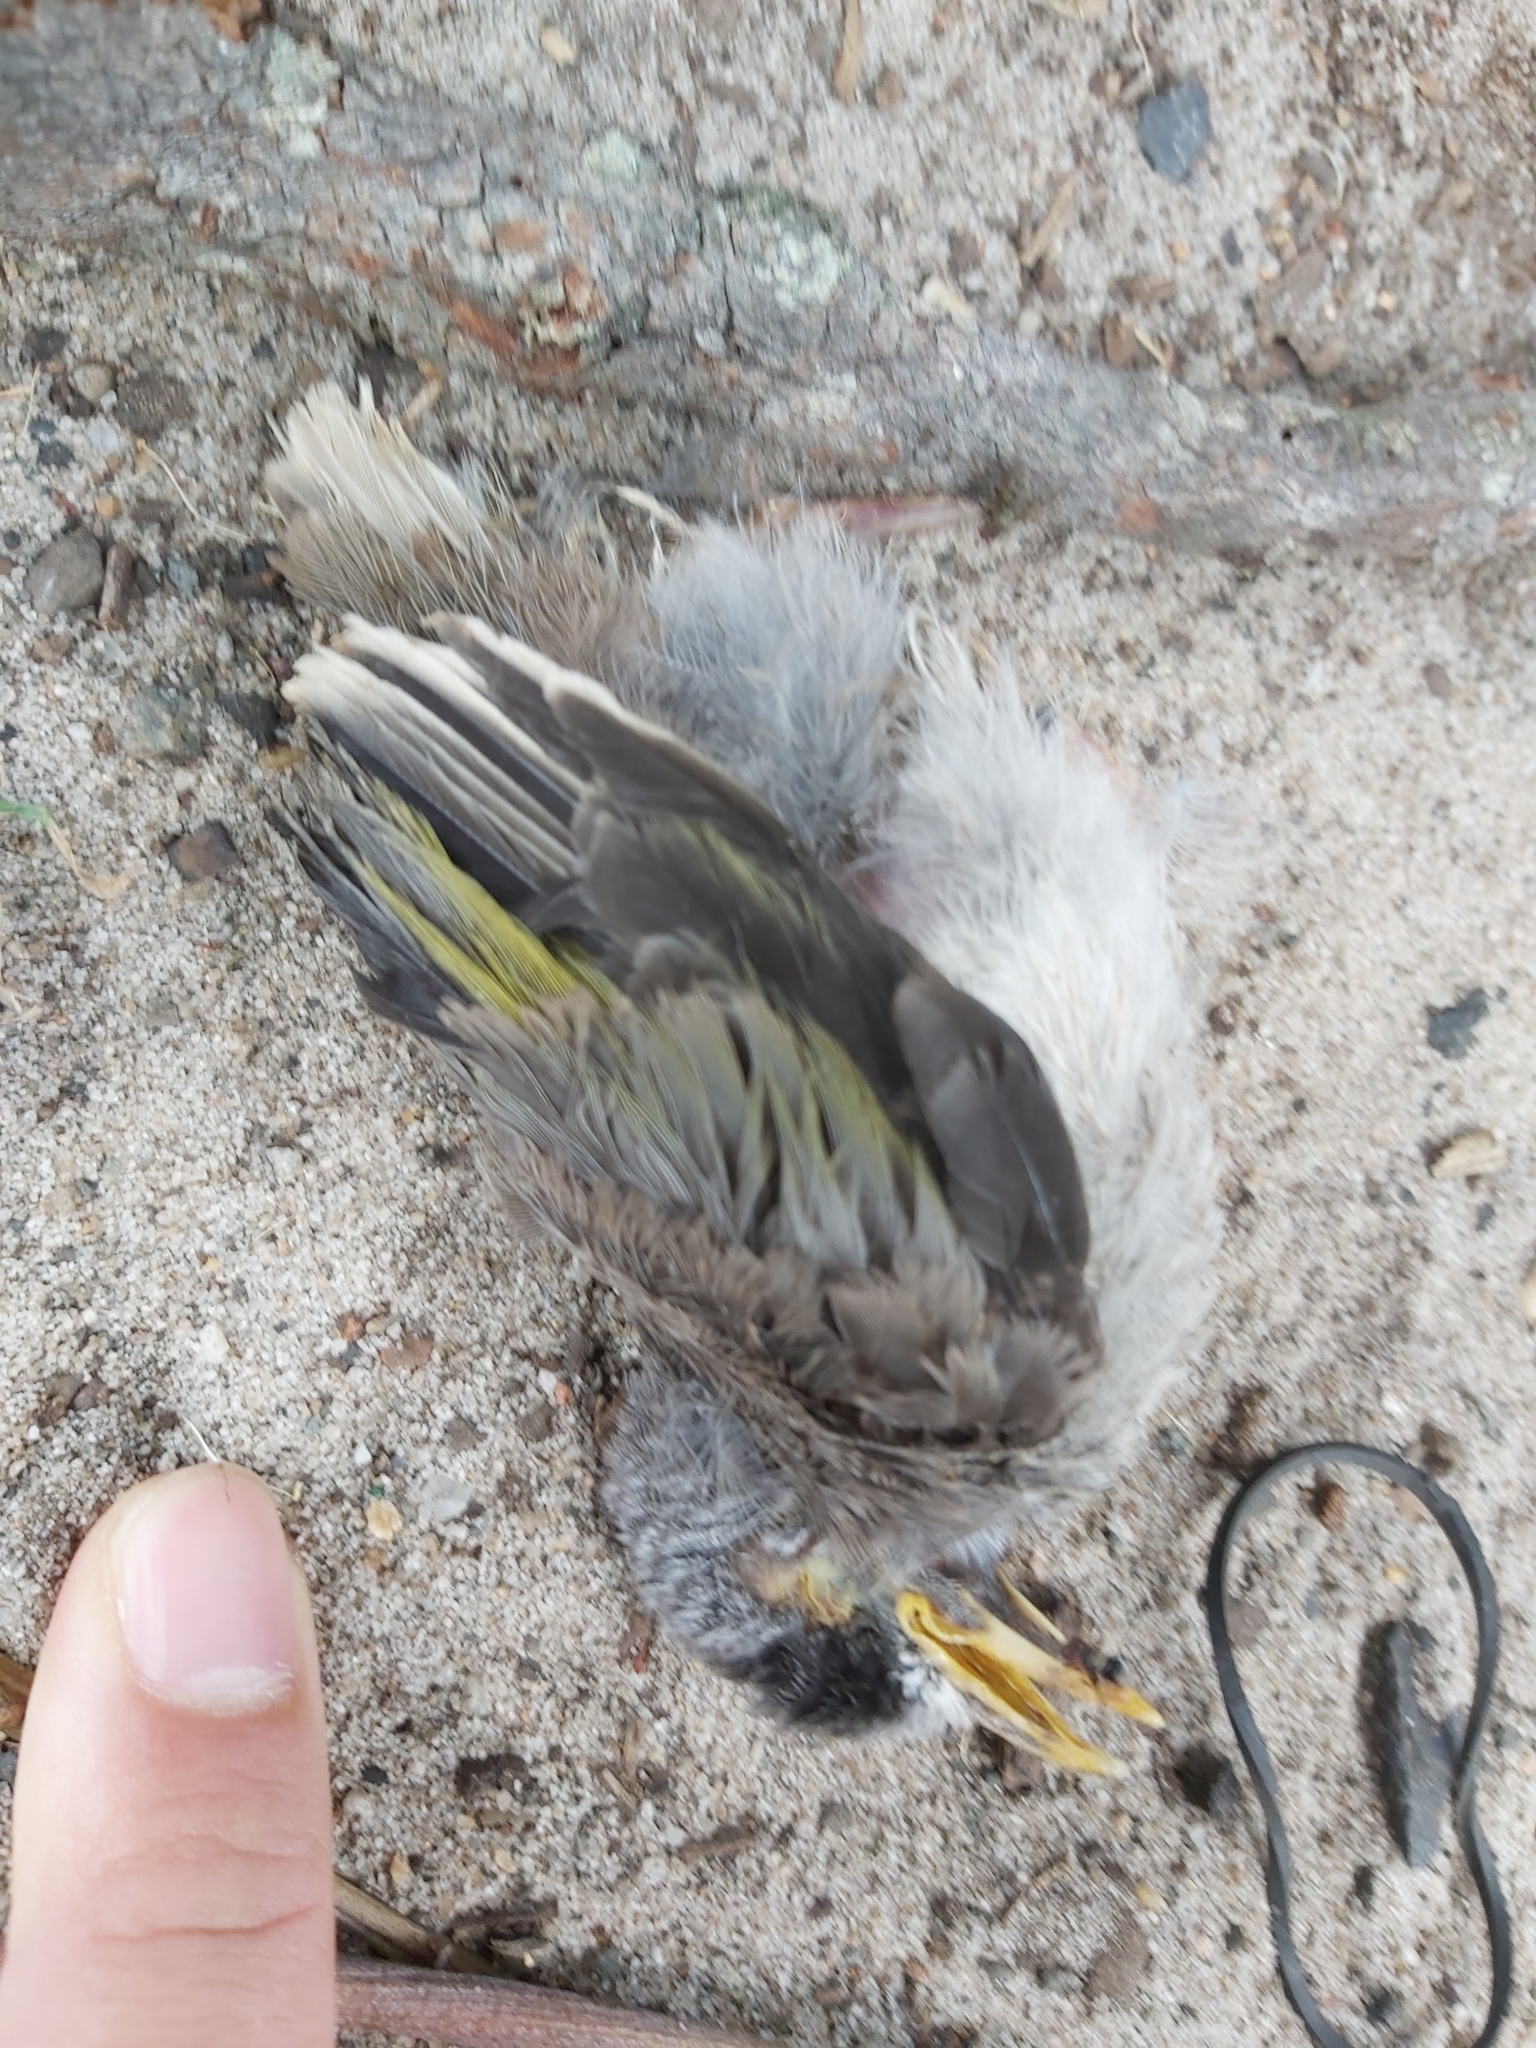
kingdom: Animalia
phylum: Chordata
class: Aves
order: Passeriformes
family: Meliphagidae
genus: Manorina
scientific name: Manorina melanocephala
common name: Noisy miner
